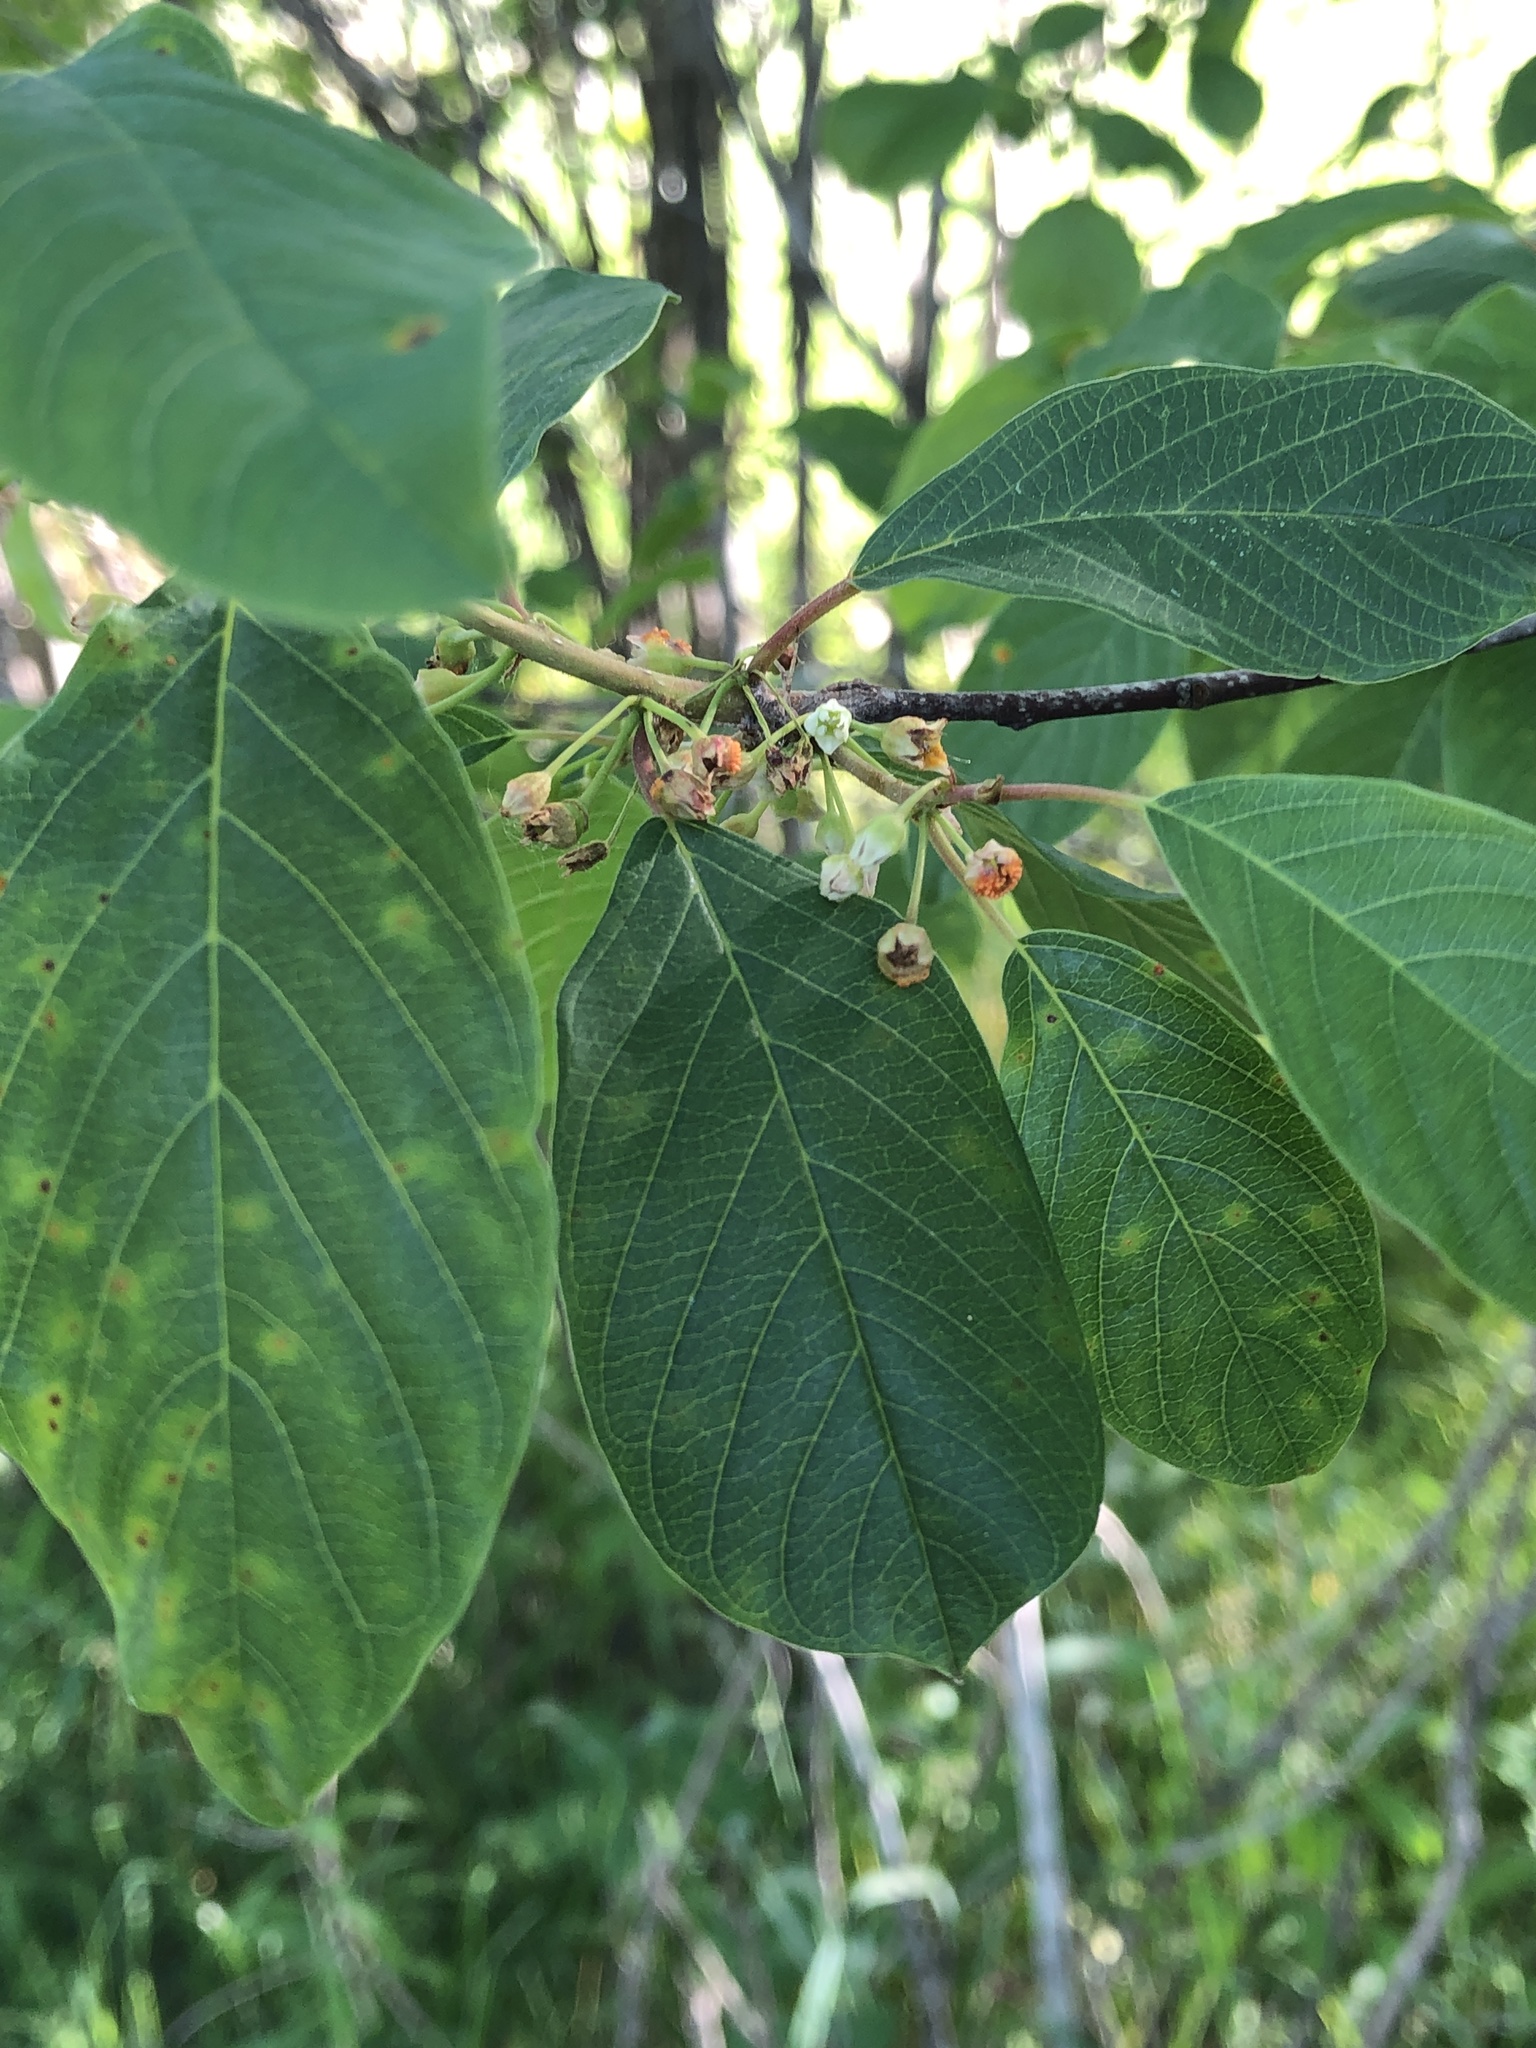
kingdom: Plantae
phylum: Tracheophyta
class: Magnoliopsida
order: Rosales
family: Rhamnaceae
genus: Frangula
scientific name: Frangula alnus
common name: Alder buckthorn
